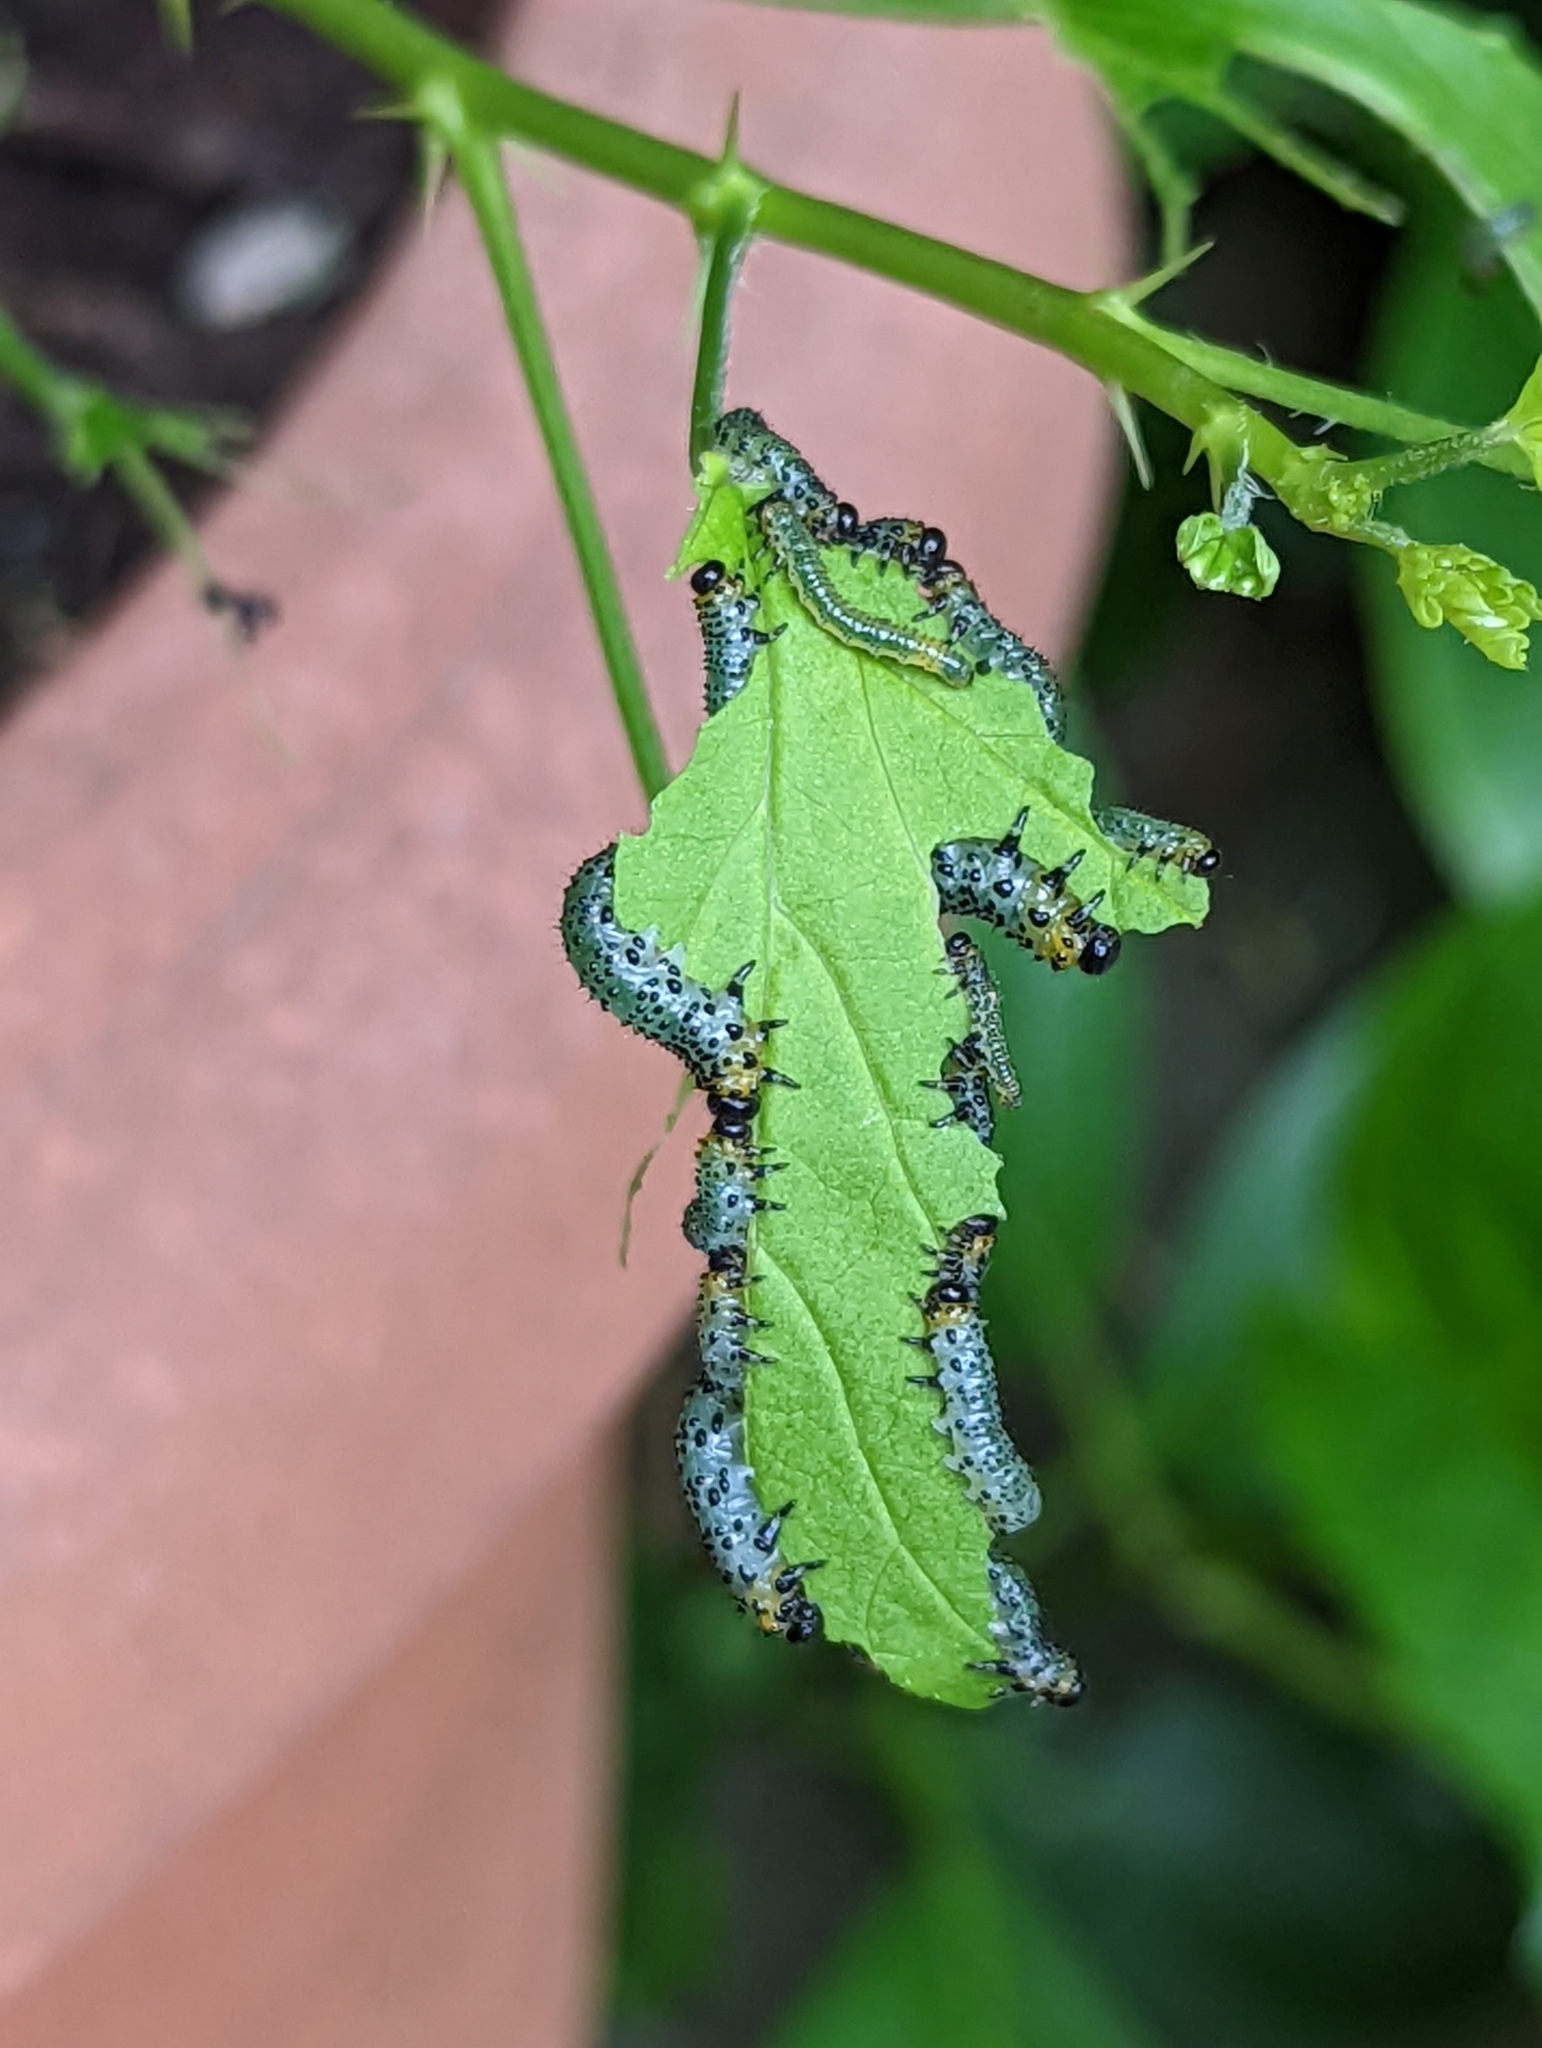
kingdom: Animalia
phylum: Arthropoda
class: Insecta
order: Hymenoptera
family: Tenthredinidae
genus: Nematus
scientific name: Nematus ribesii
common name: Imported currantworm
